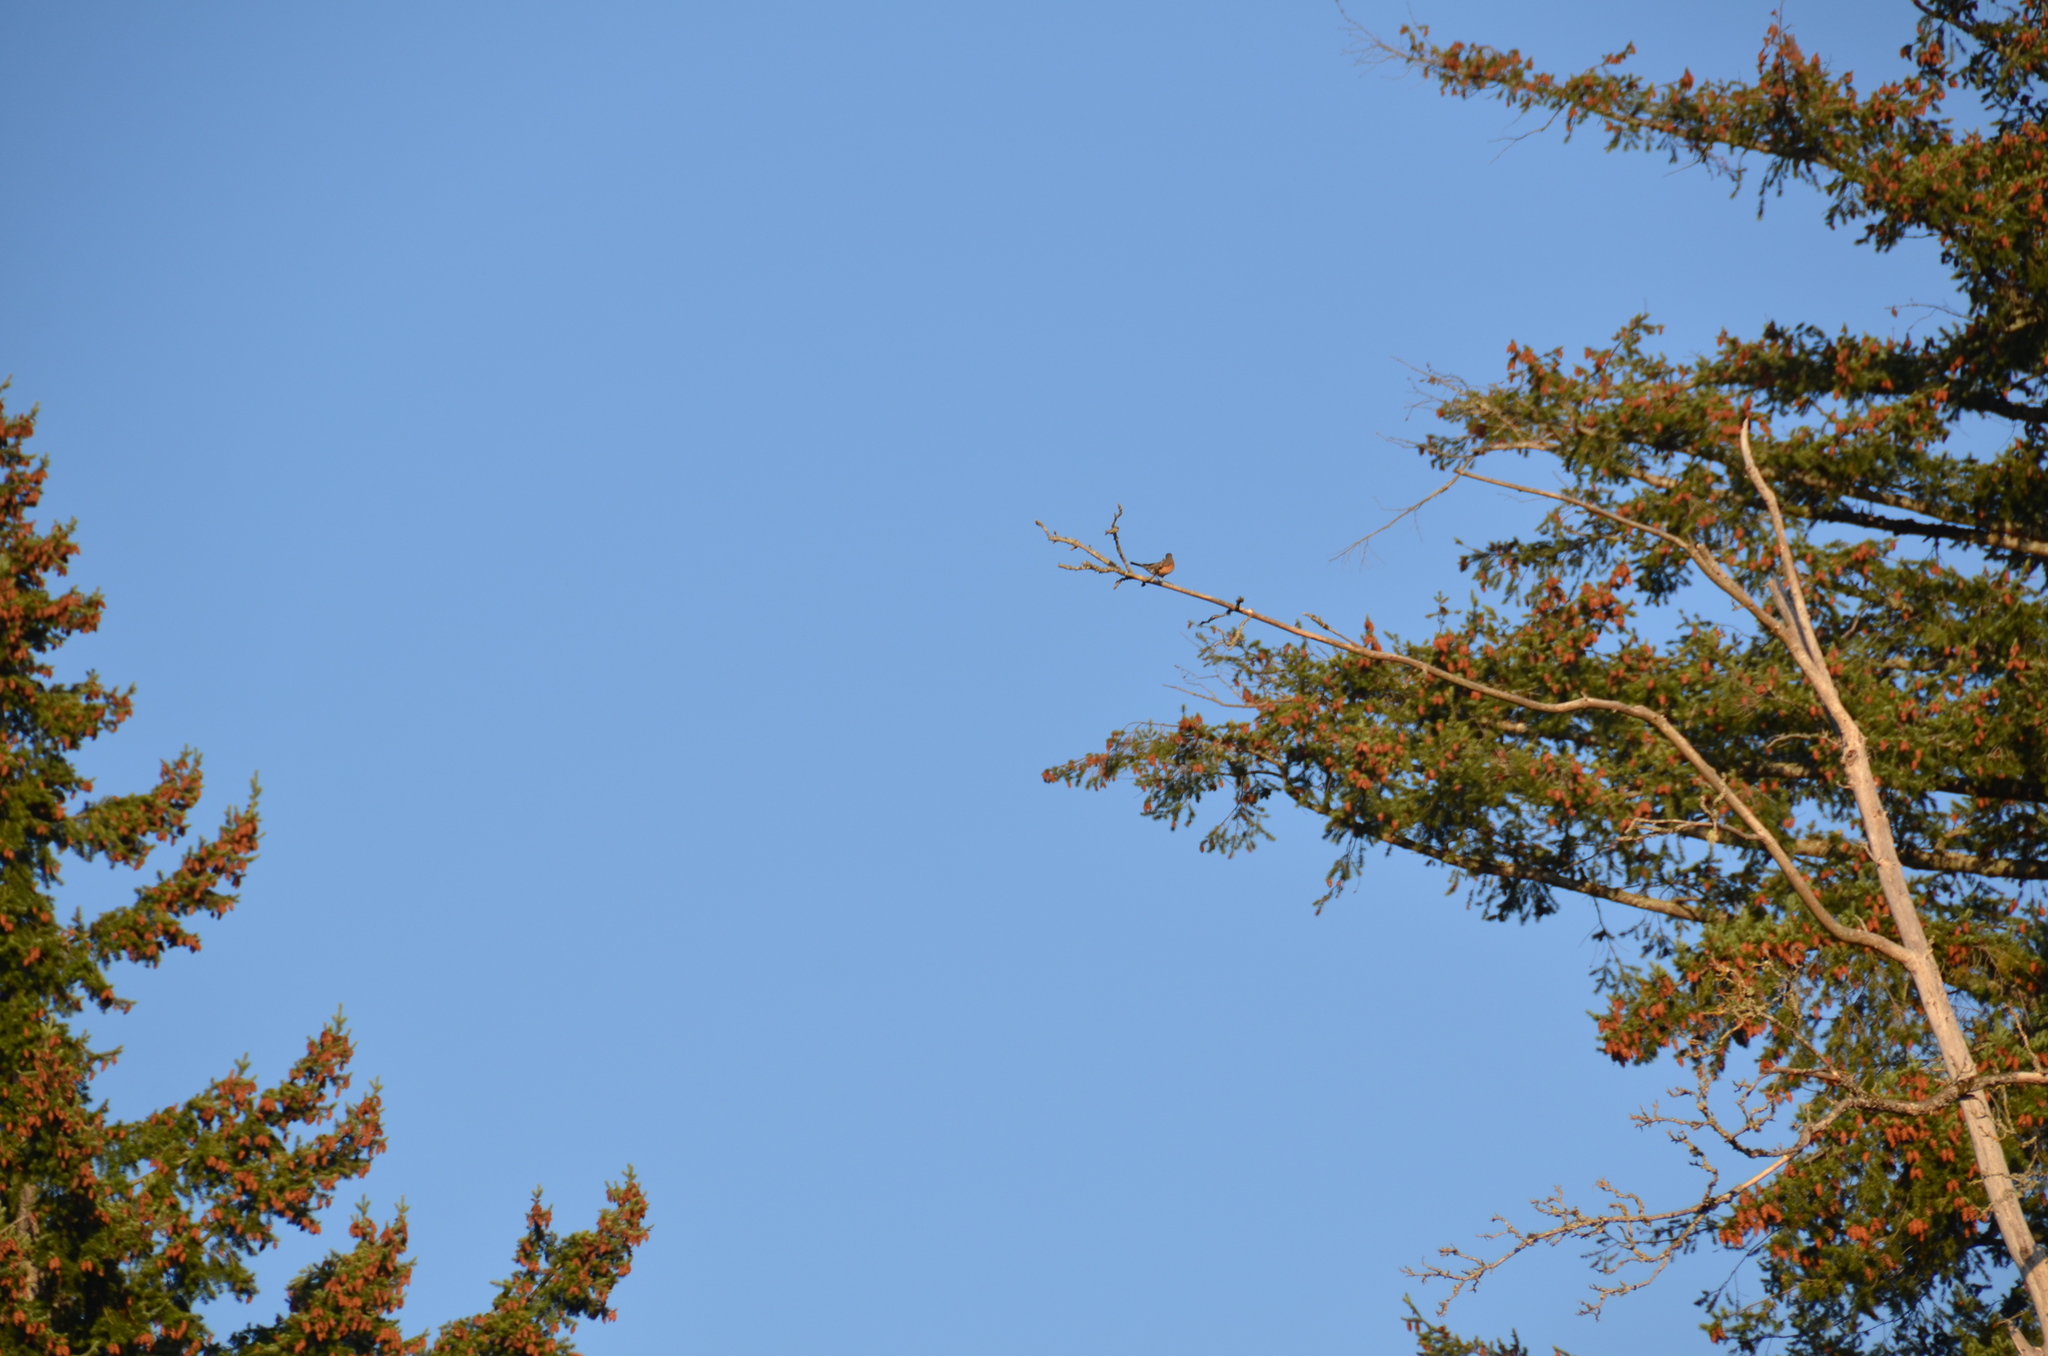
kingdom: Animalia
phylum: Chordata
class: Aves
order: Passeriformes
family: Turdidae
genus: Turdus
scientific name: Turdus migratorius
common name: American robin
